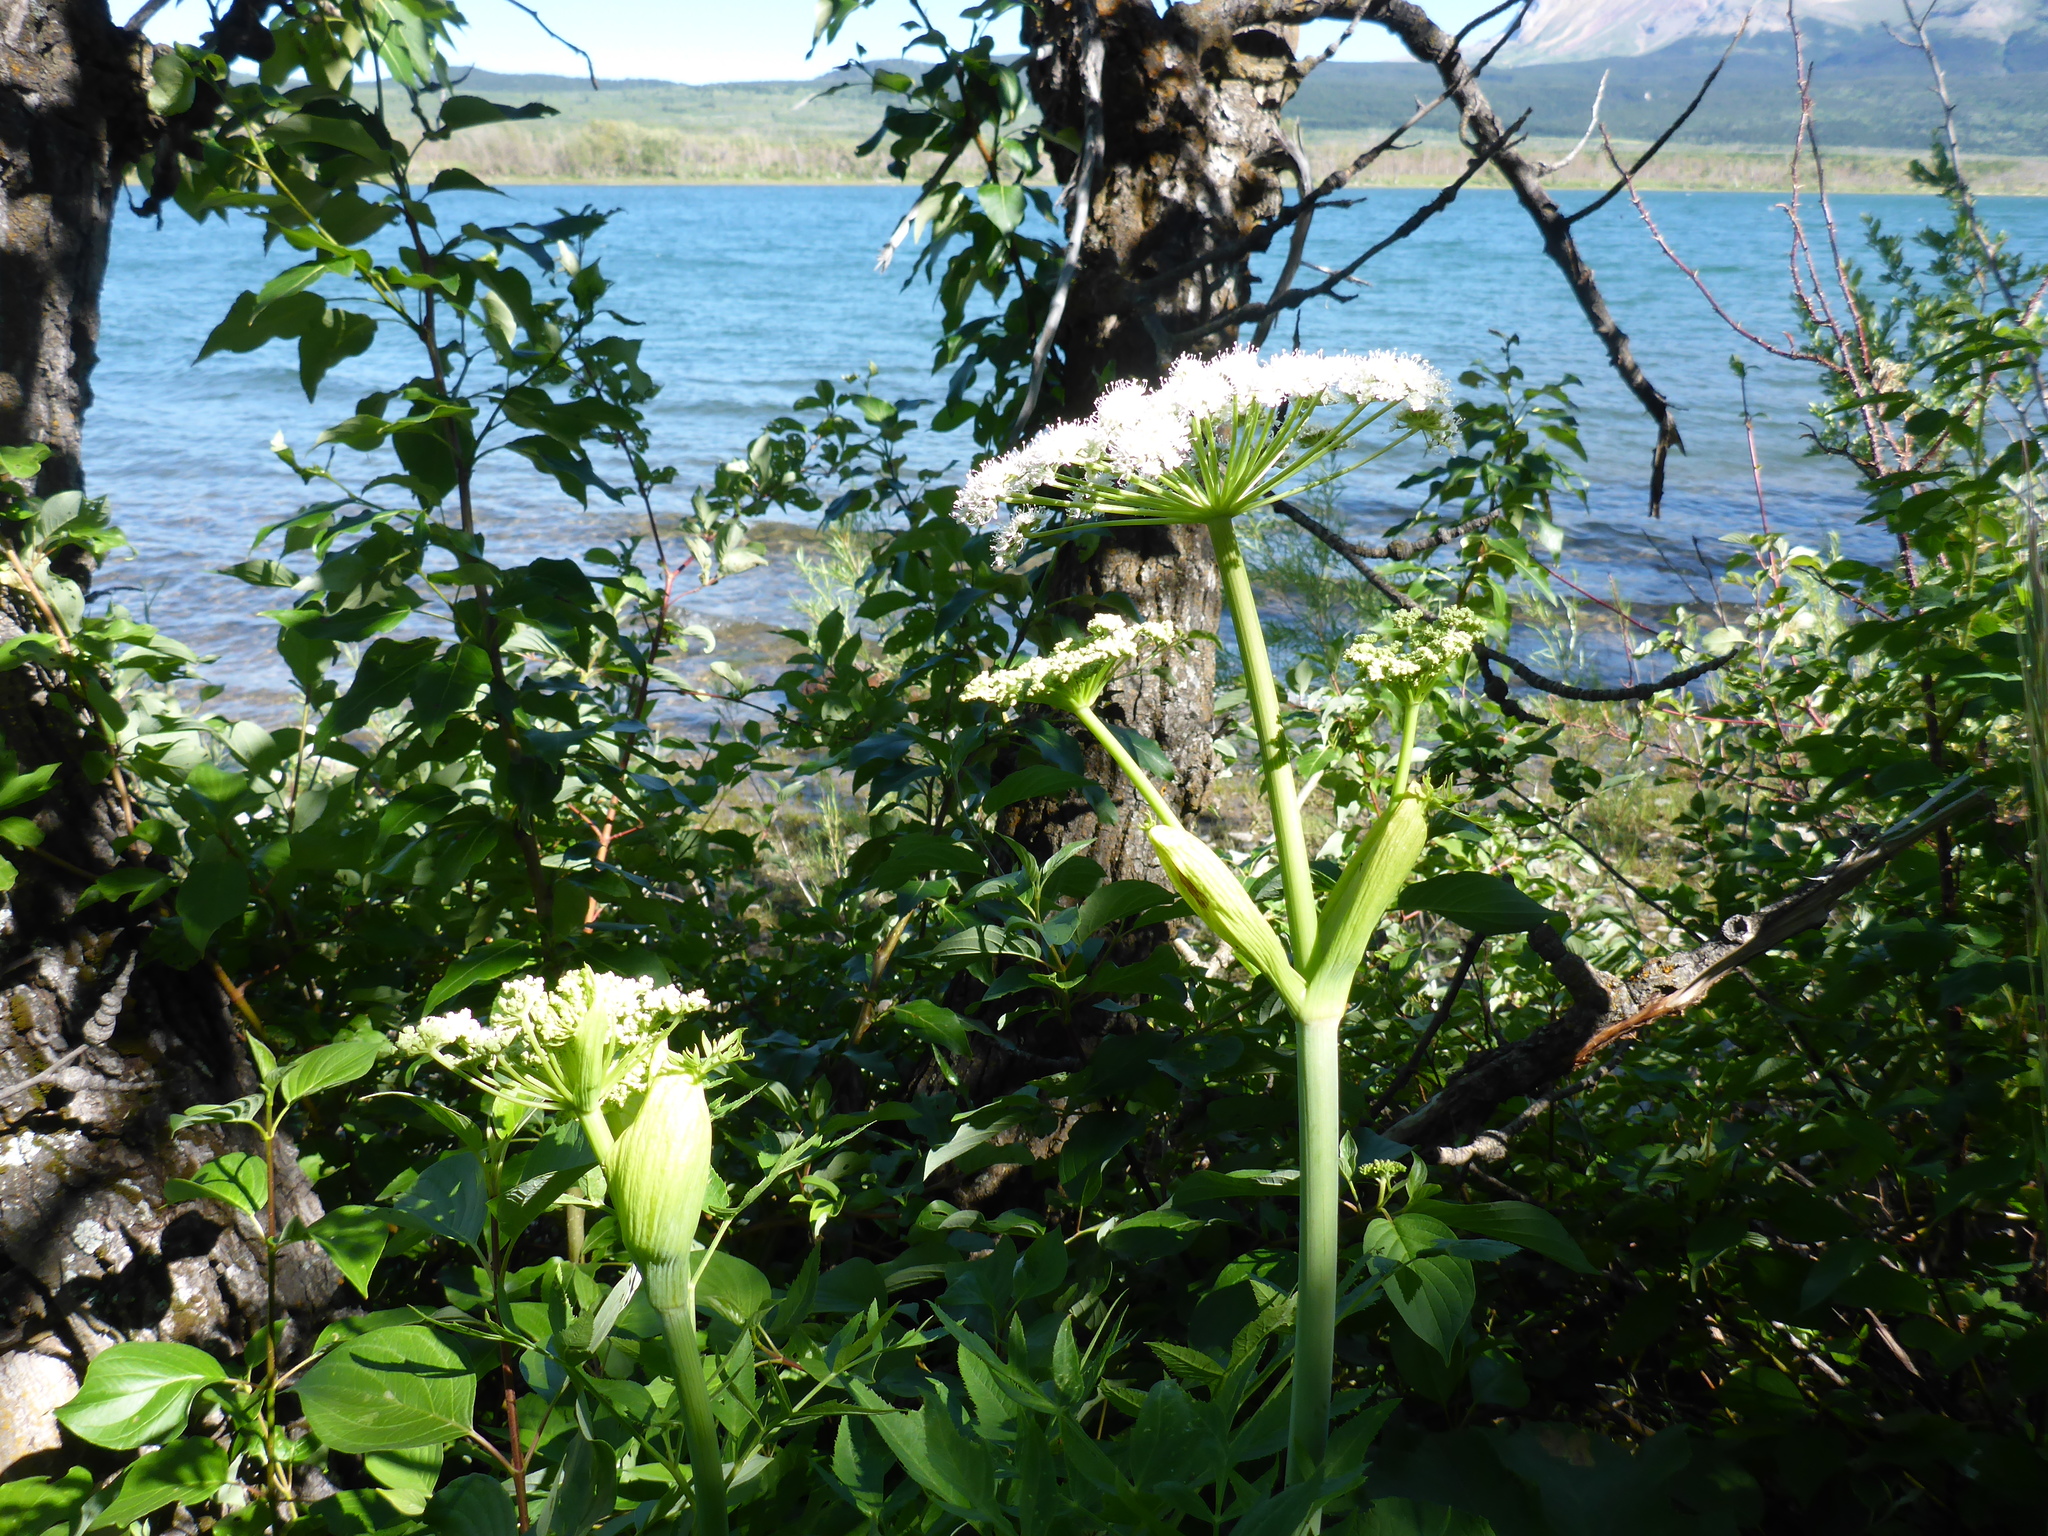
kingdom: Plantae
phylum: Tracheophyta
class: Magnoliopsida
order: Apiales
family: Apiaceae
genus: Heracleum
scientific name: Heracleum maximum
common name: American cow parsnip
